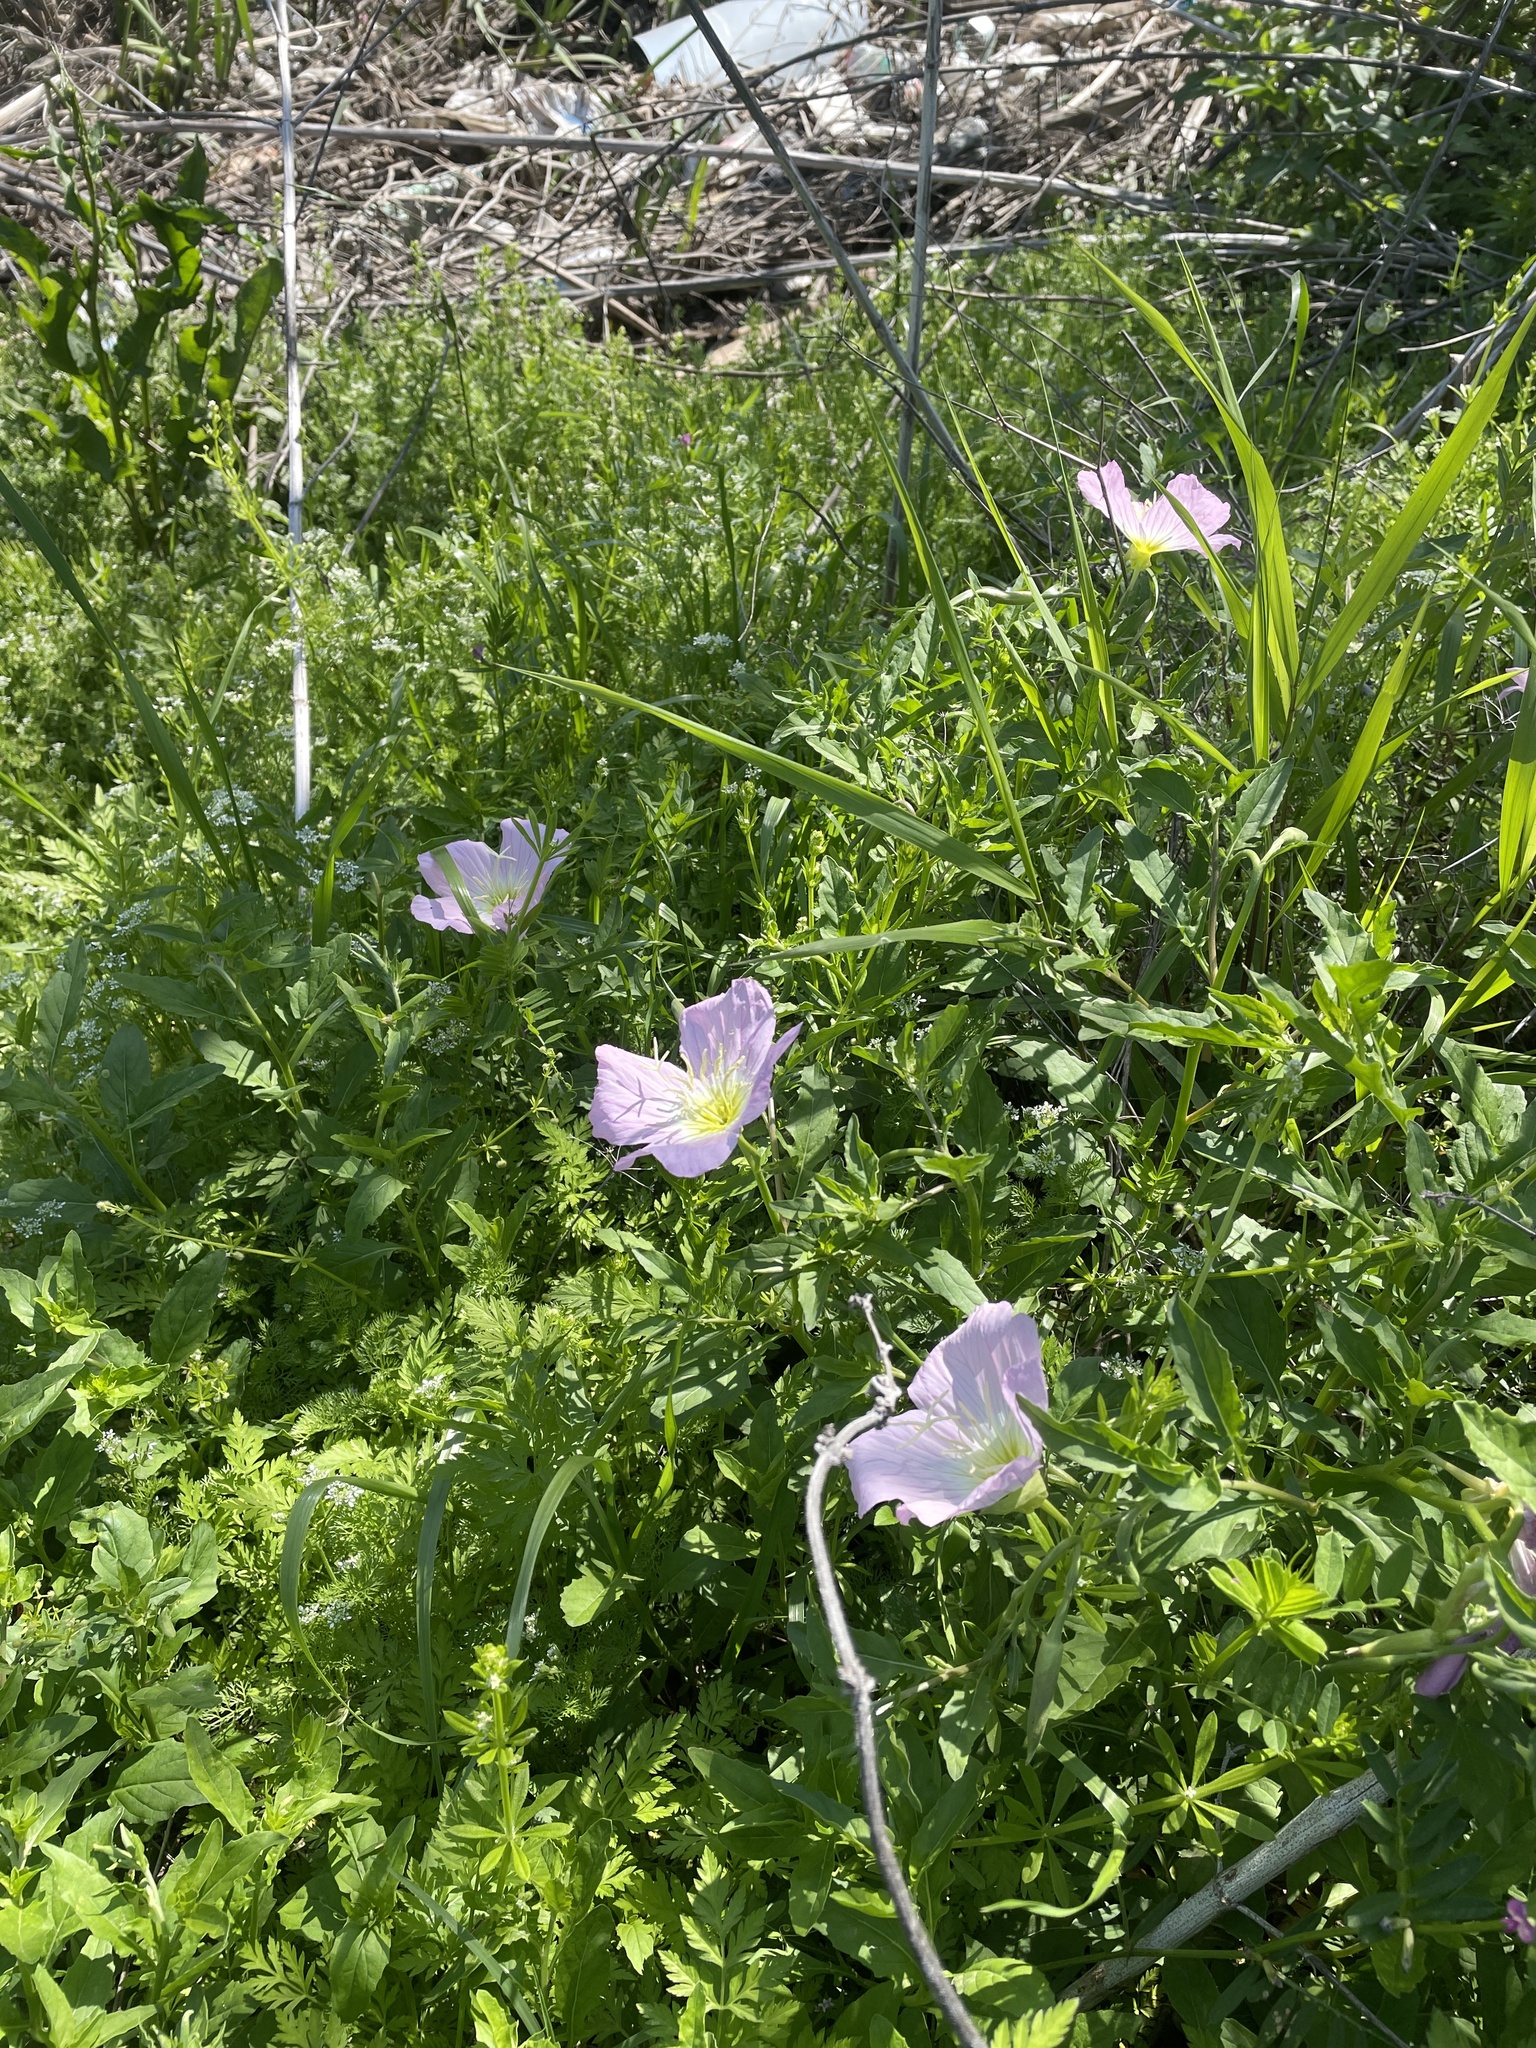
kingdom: Plantae
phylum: Tracheophyta
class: Magnoliopsida
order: Myrtales
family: Onagraceae
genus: Oenothera
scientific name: Oenothera speciosa
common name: White evening-primrose
